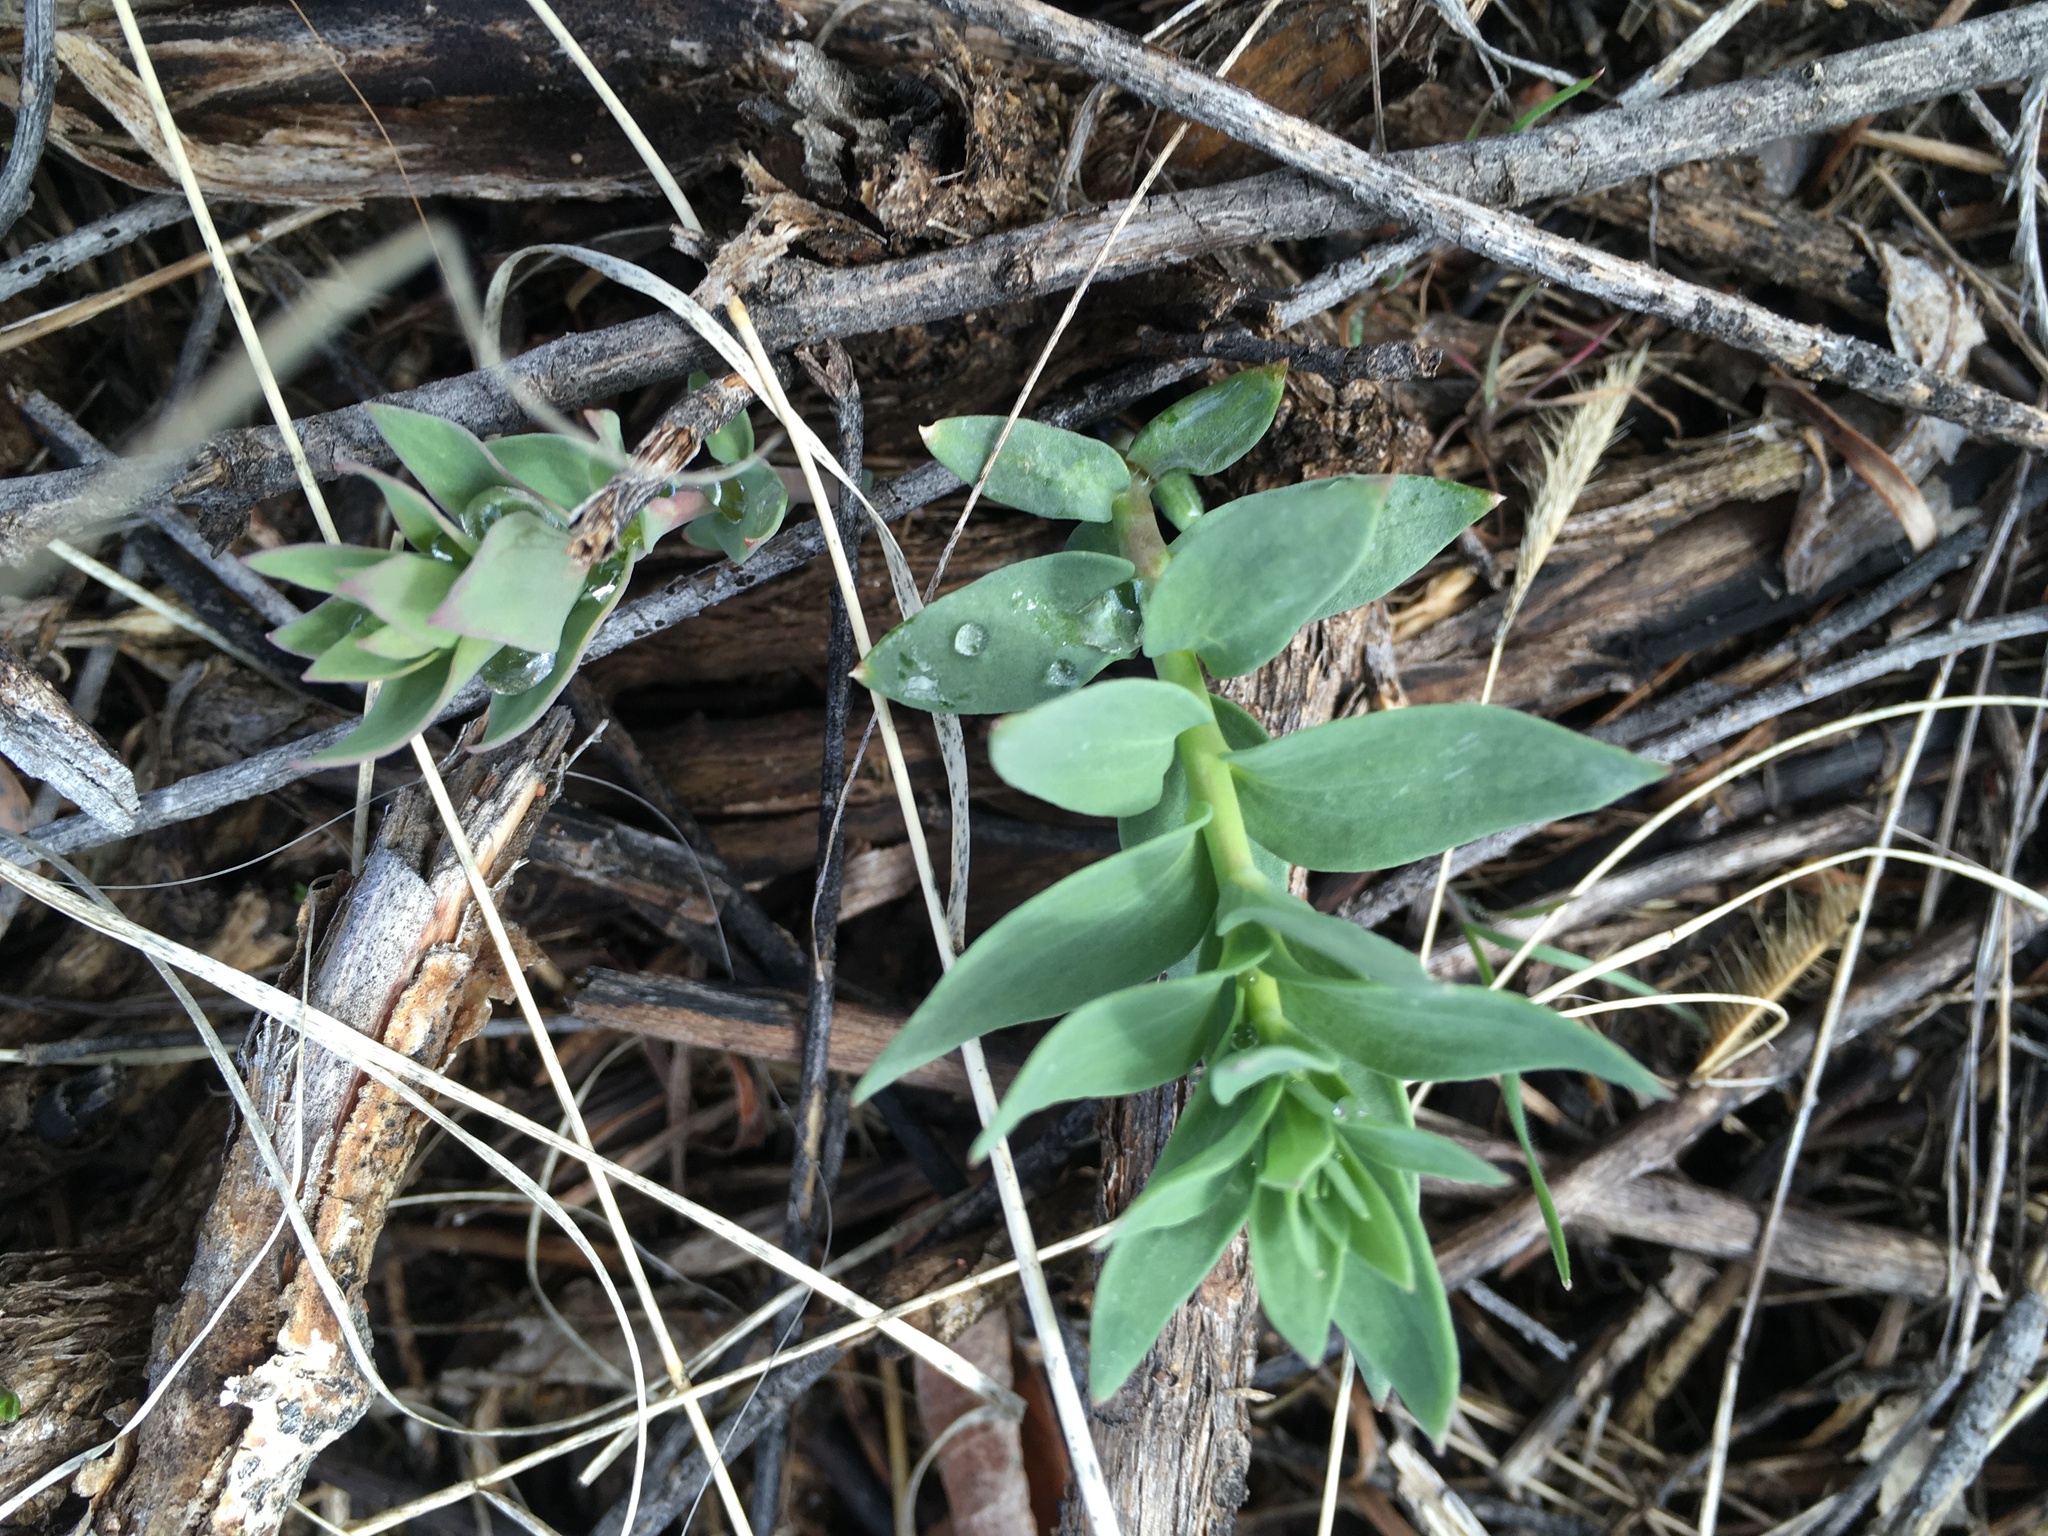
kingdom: Plantae
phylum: Tracheophyta
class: Magnoliopsida
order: Lamiales
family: Plantaginaceae
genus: Linaria
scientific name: Linaria dalmatica
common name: Dalmatian toadflax
